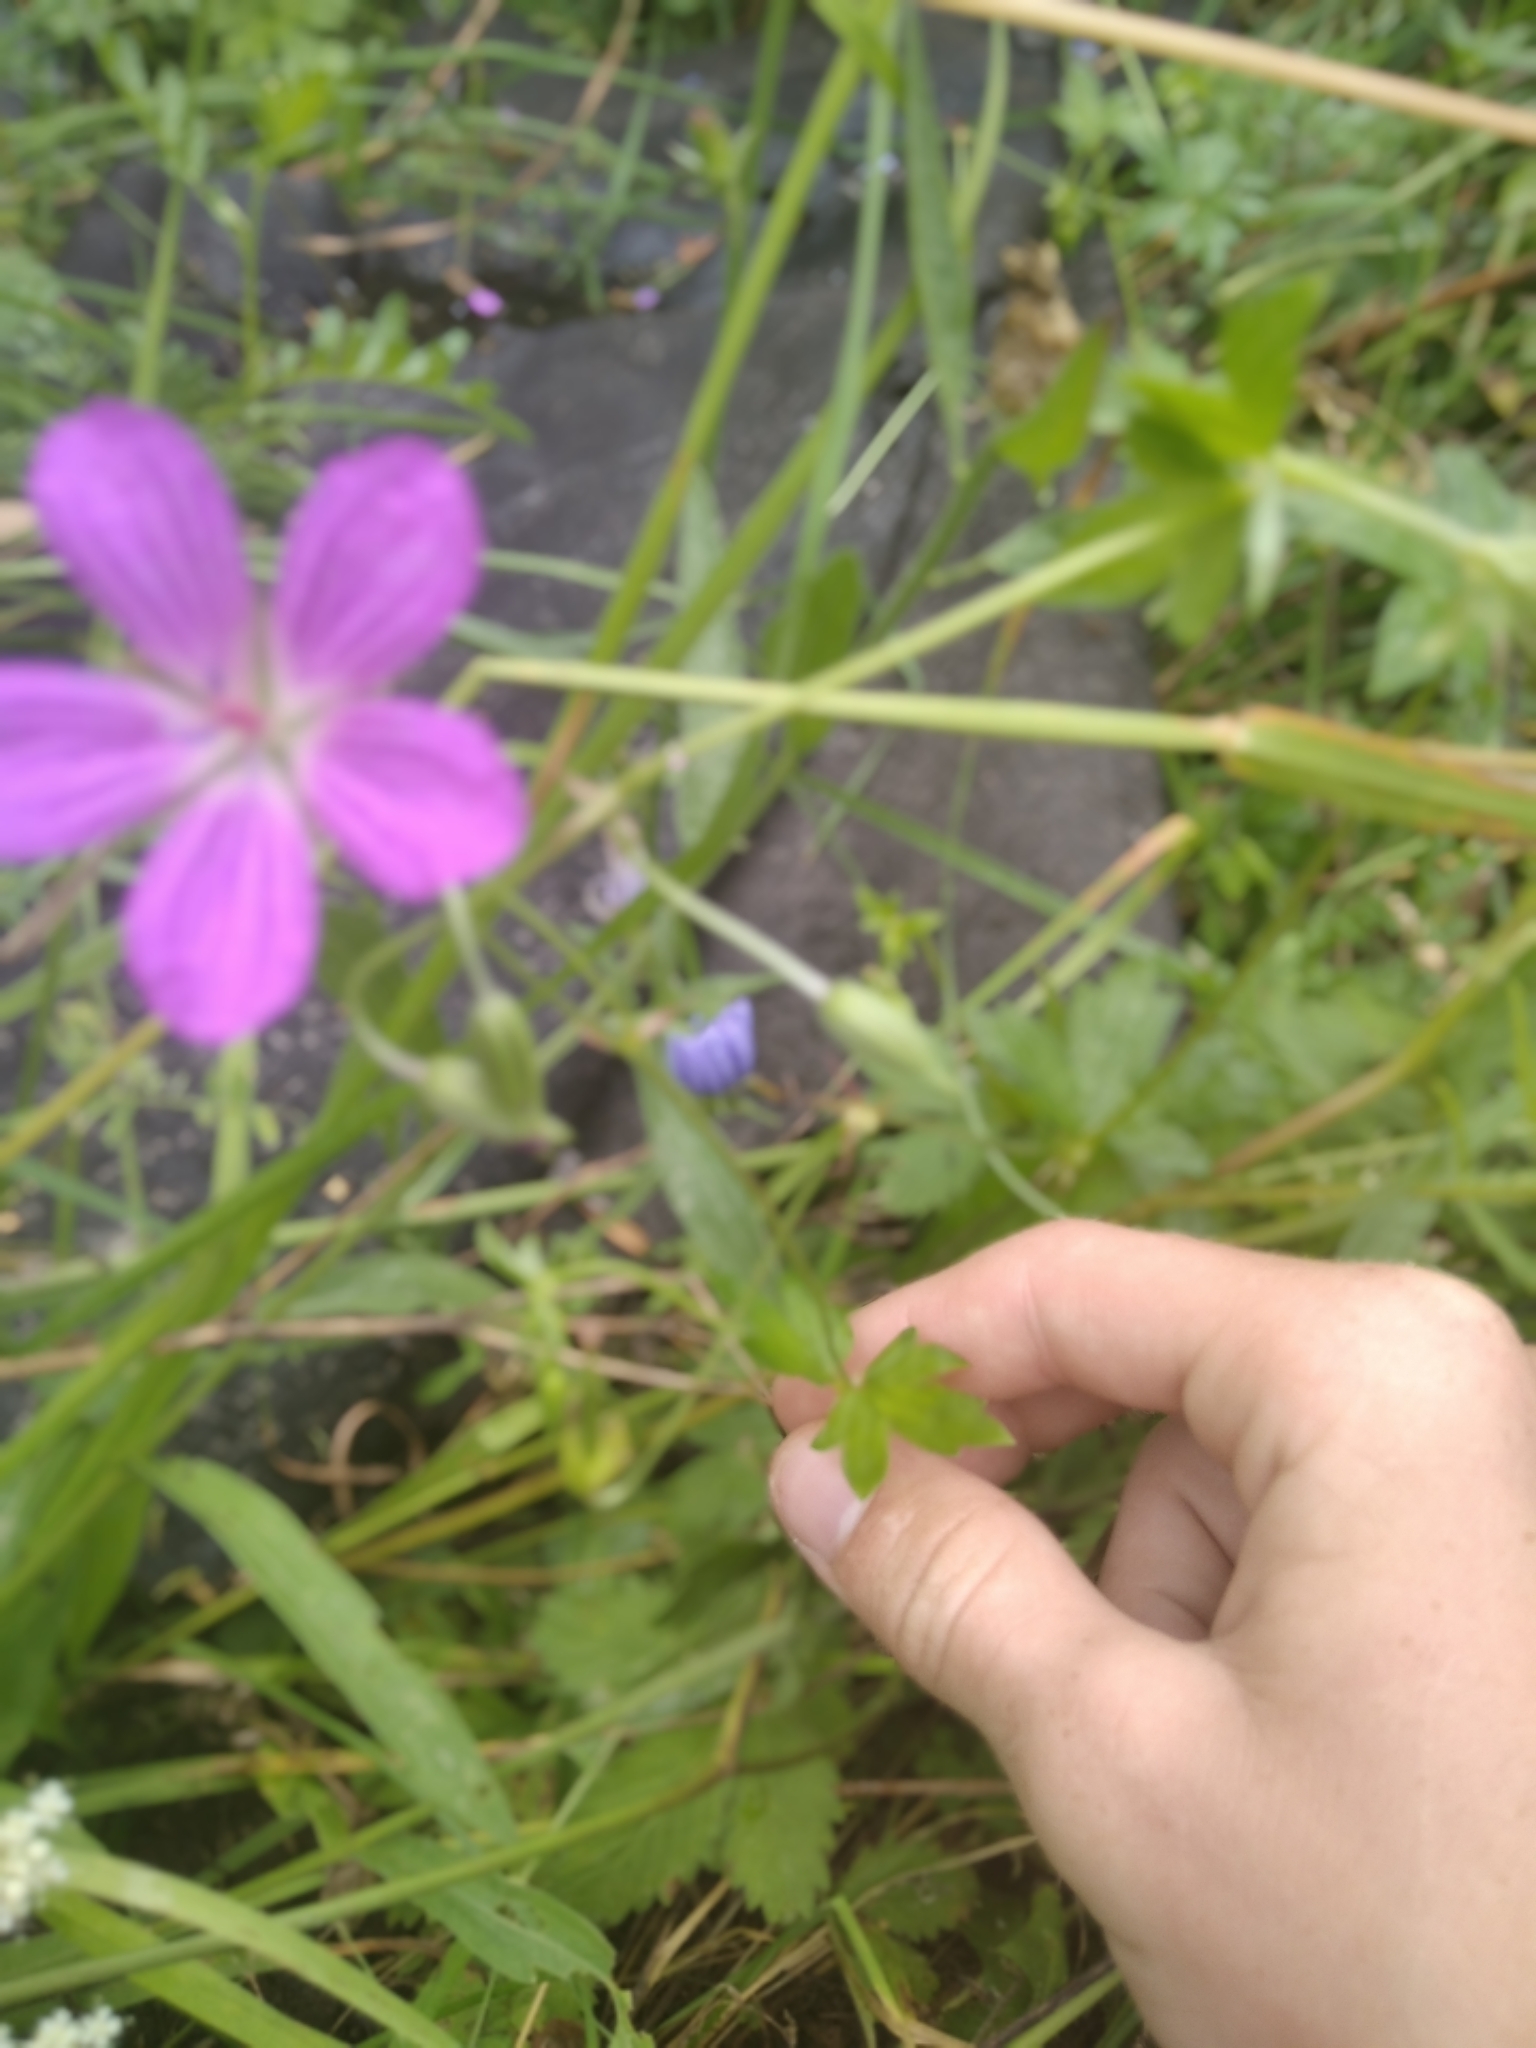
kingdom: Plantae
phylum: Tracheophyta
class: Magnoliopsida
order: Geraniales
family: Geraniaceae
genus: Geranium
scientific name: Geranium palustre
